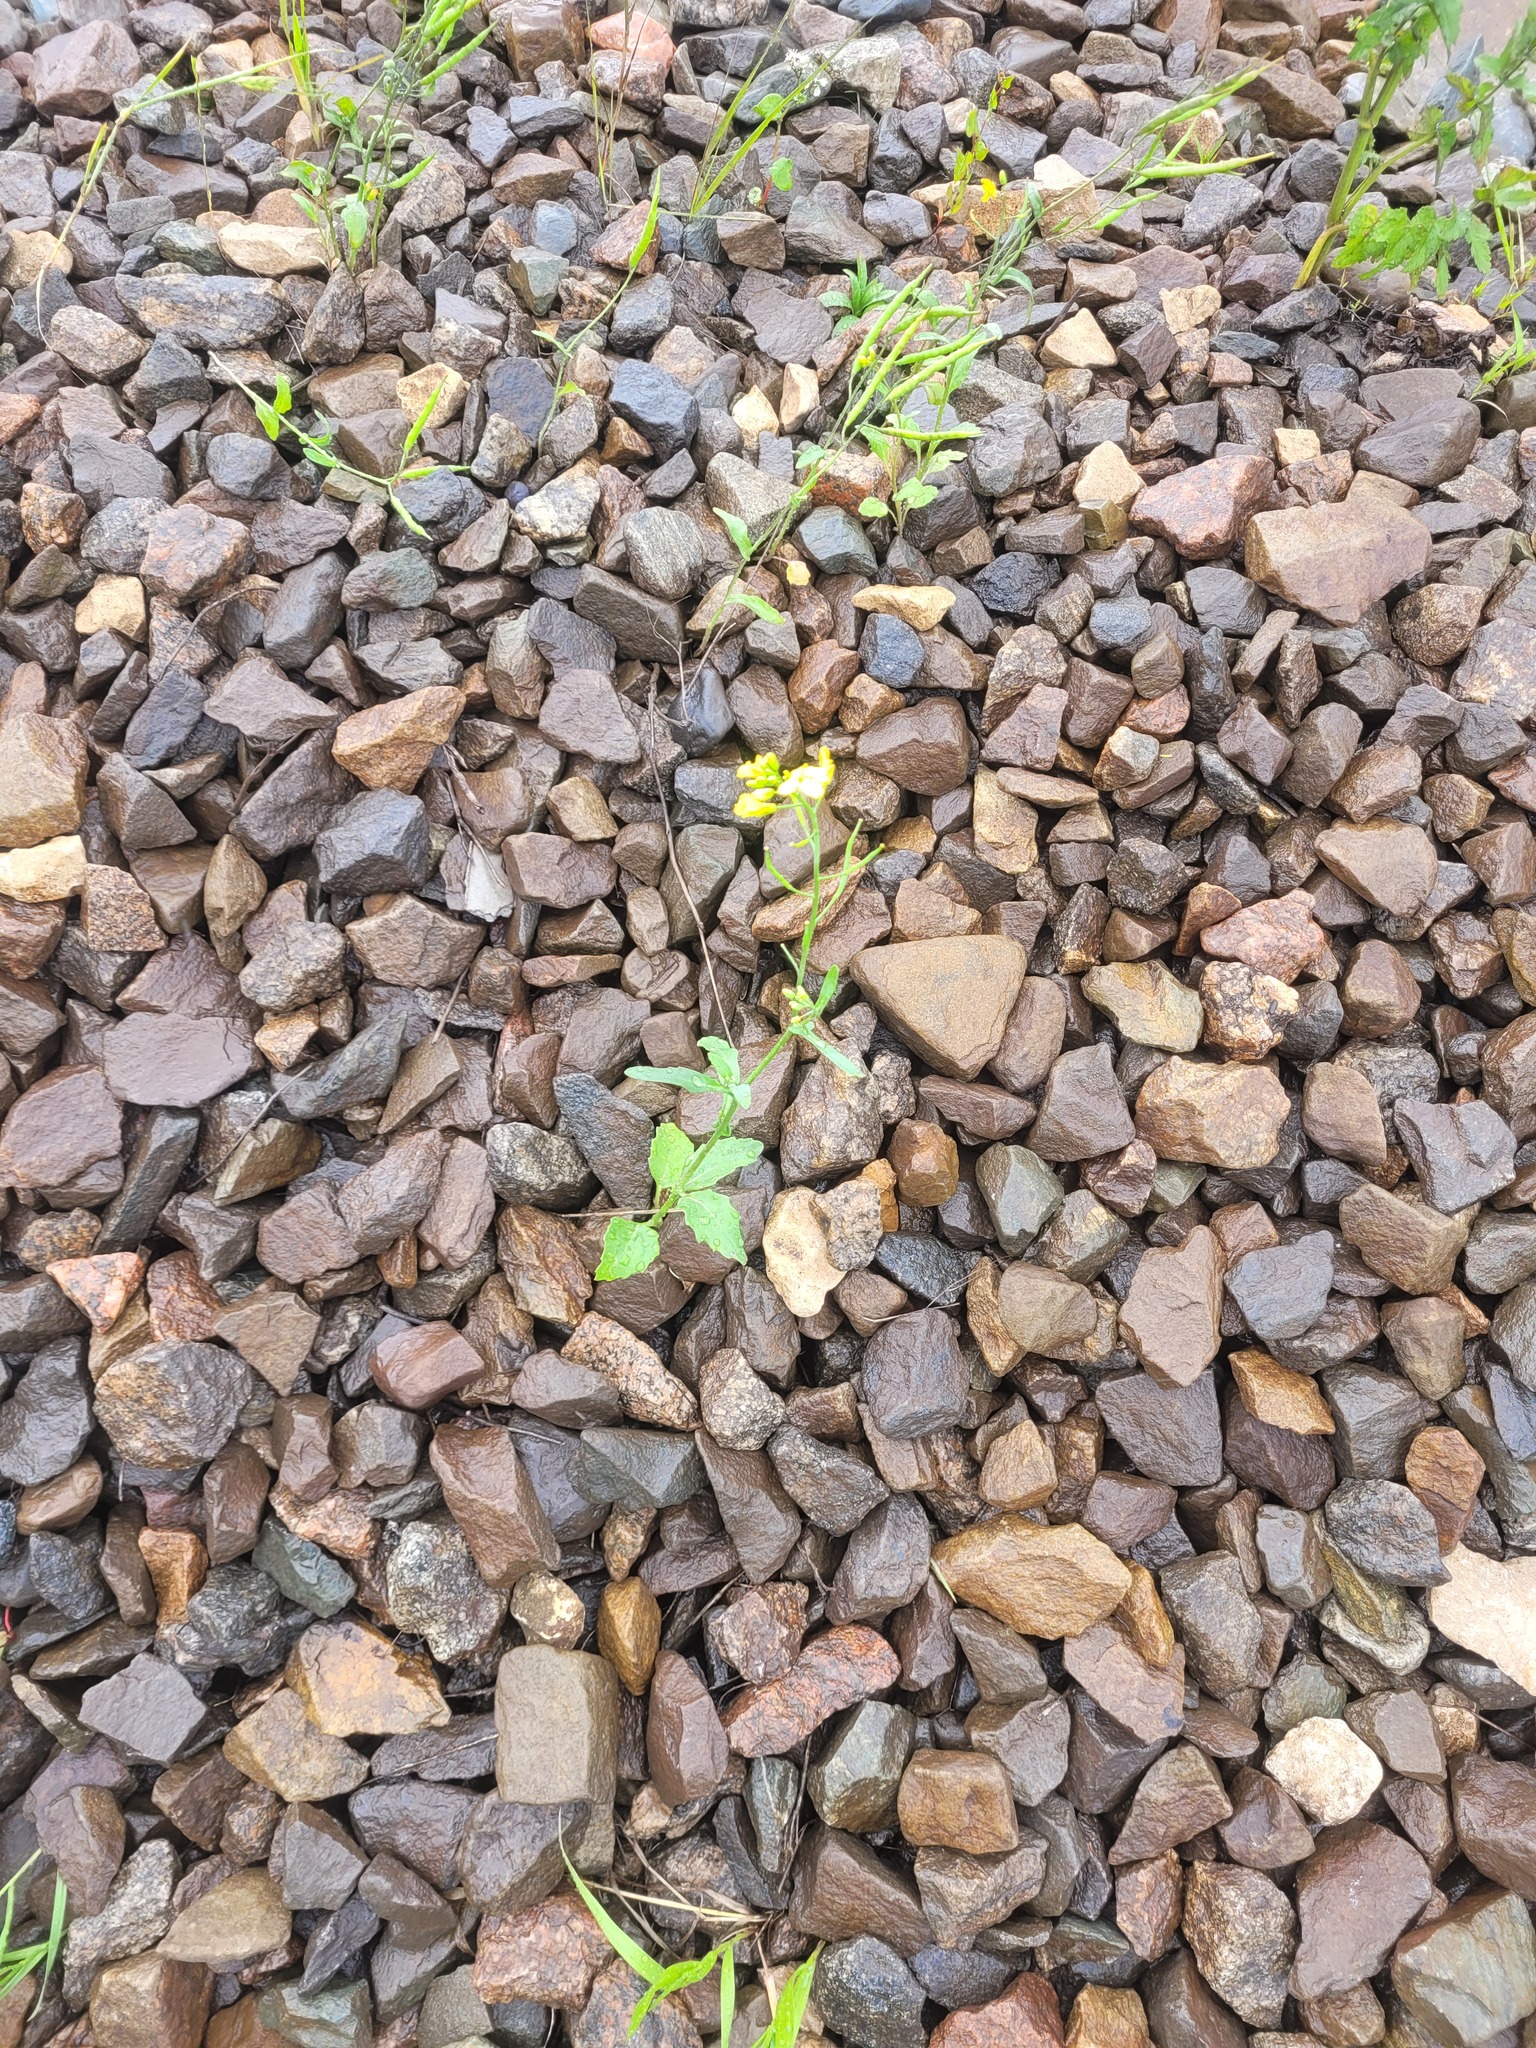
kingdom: Plantae
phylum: Tracheophyta
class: Magnoliopsida
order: Brassicales
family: Brassicaceae
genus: Brassica
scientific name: Brassica napus
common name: Rape
